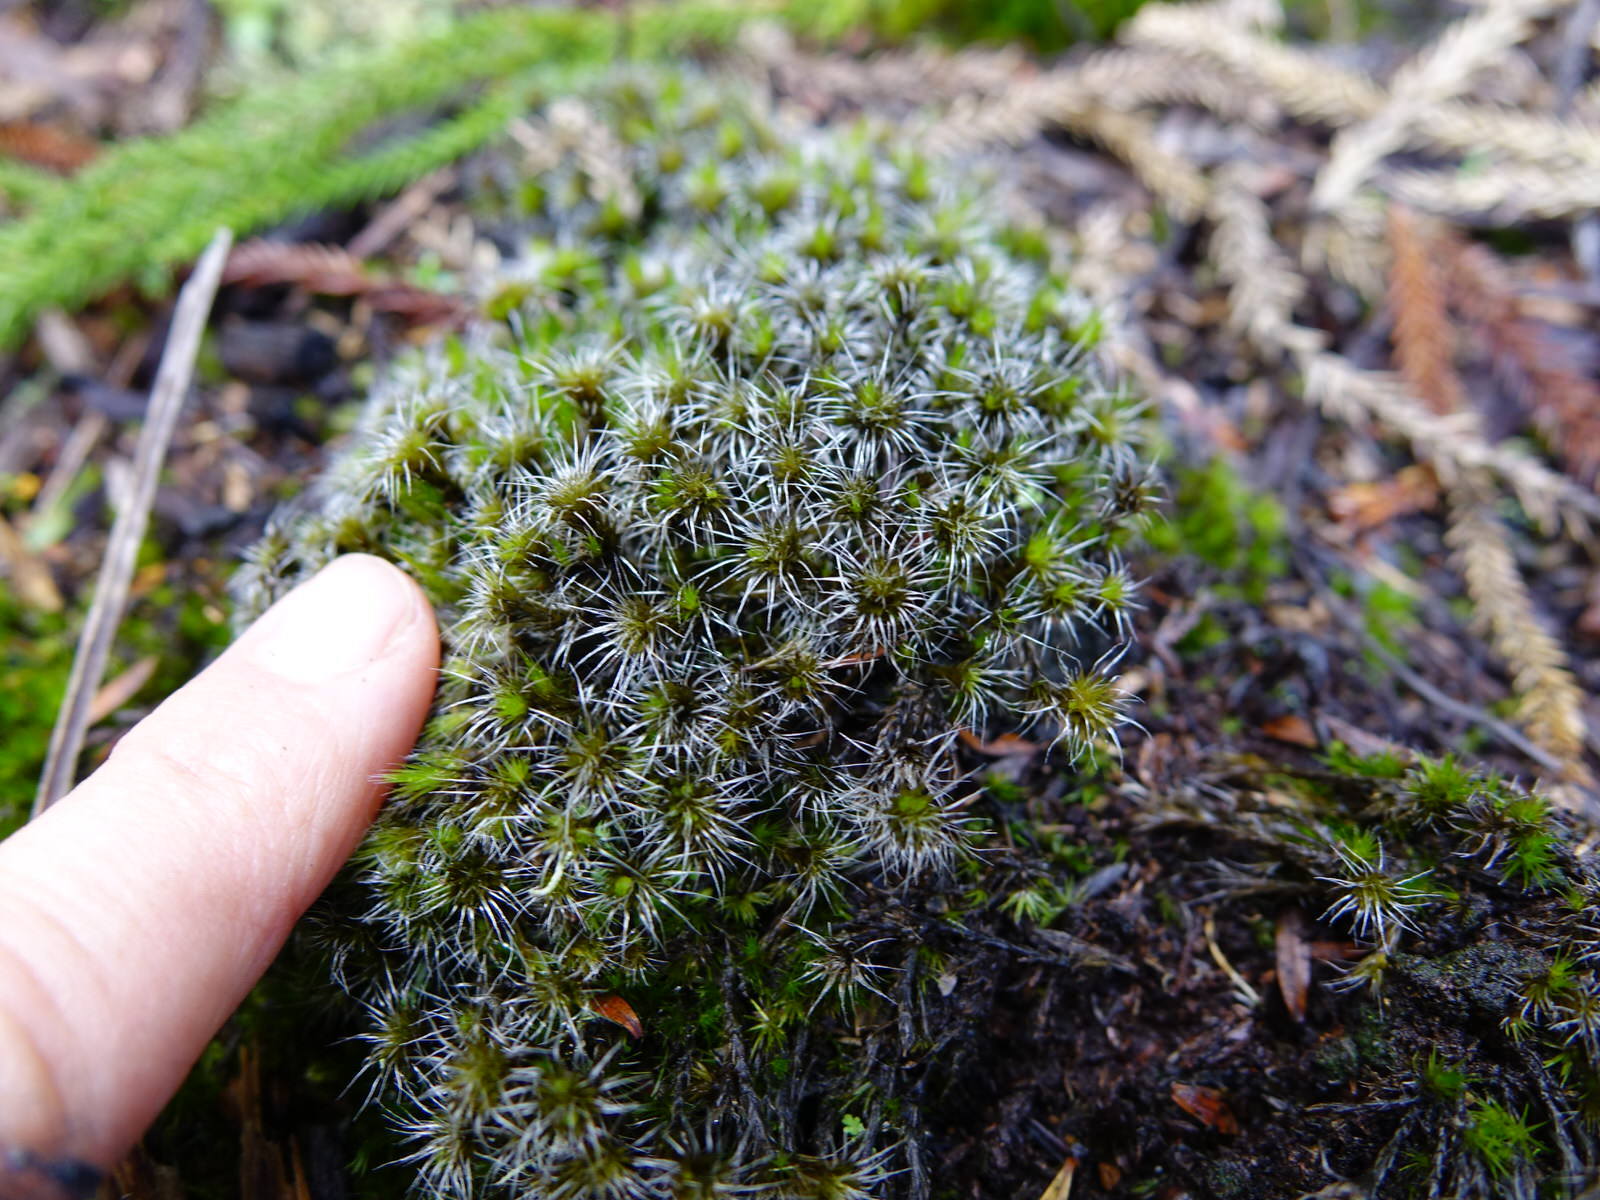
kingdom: Plantae
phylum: Bryophyta
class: Bryopsida
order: Dicranales
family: Leucobryaceae
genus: Campylopus
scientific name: Campylopus introflexus
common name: Heath star moss
